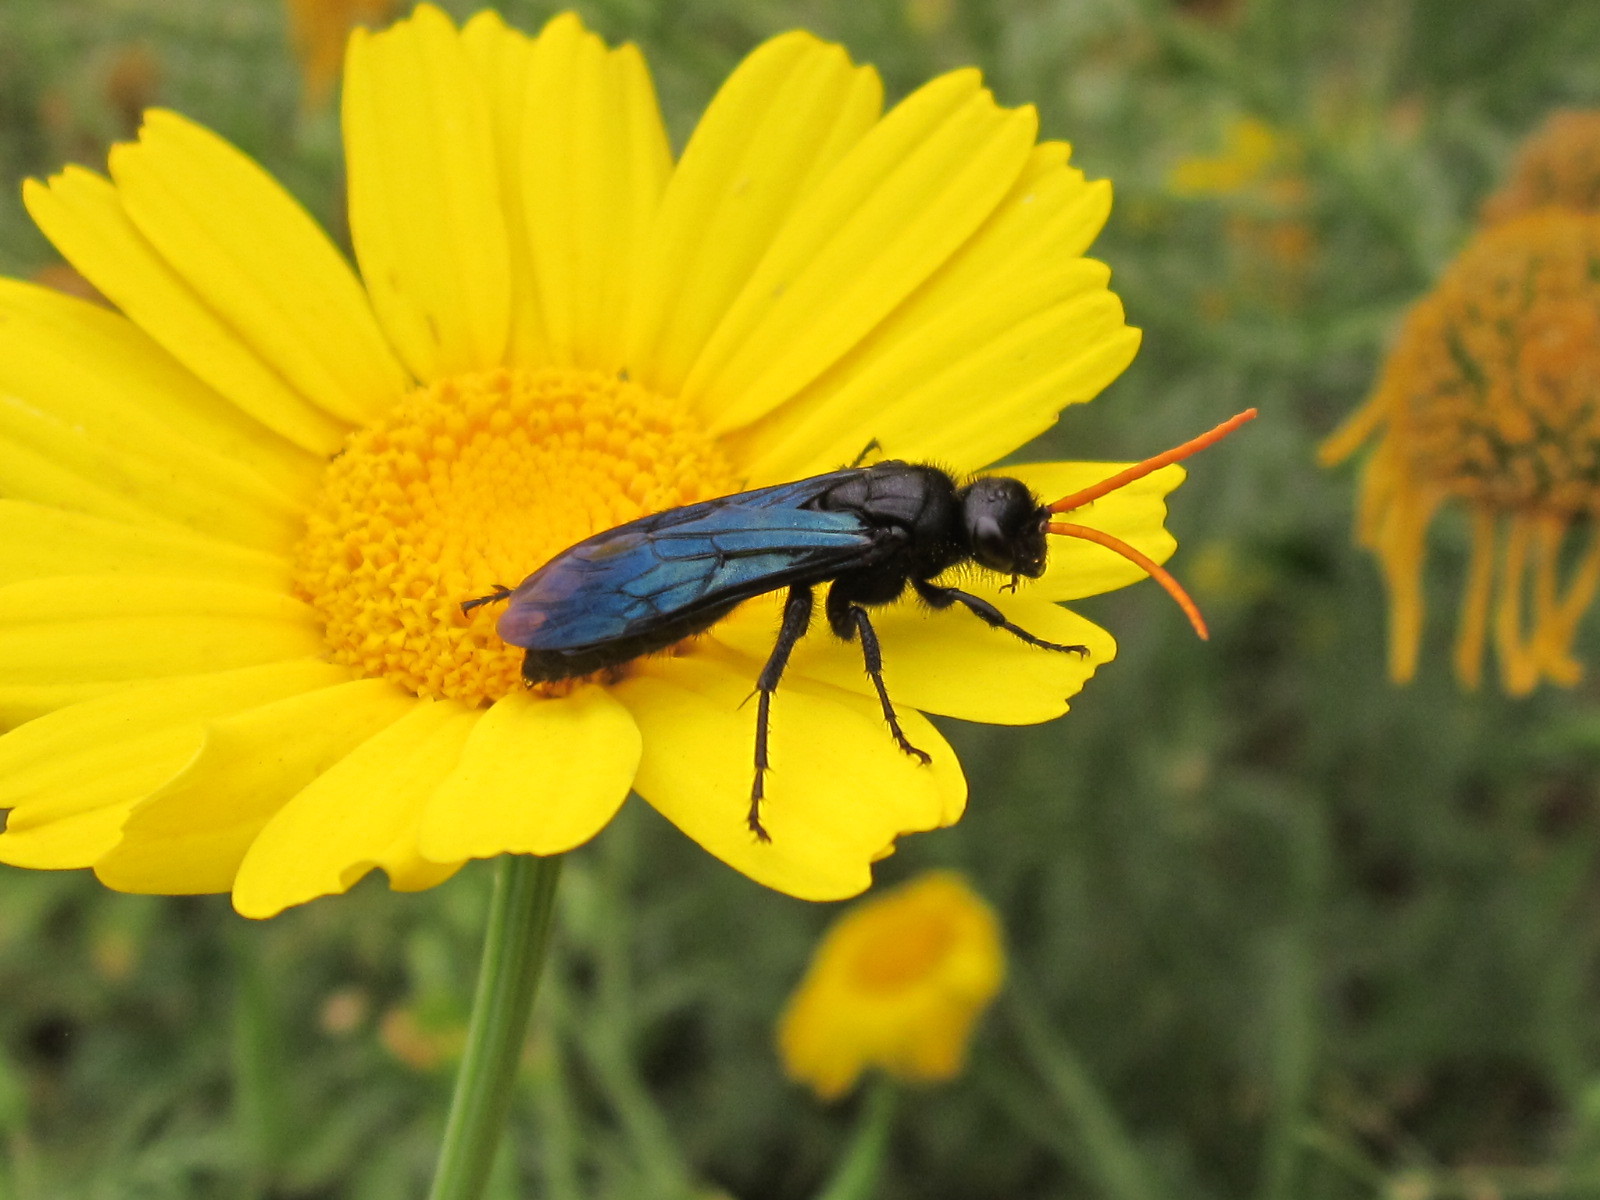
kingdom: Animalia
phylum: Arthropoda
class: Insecta
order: Hymenoptera
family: Tiphiidae
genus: Cosila
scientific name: Cosila
